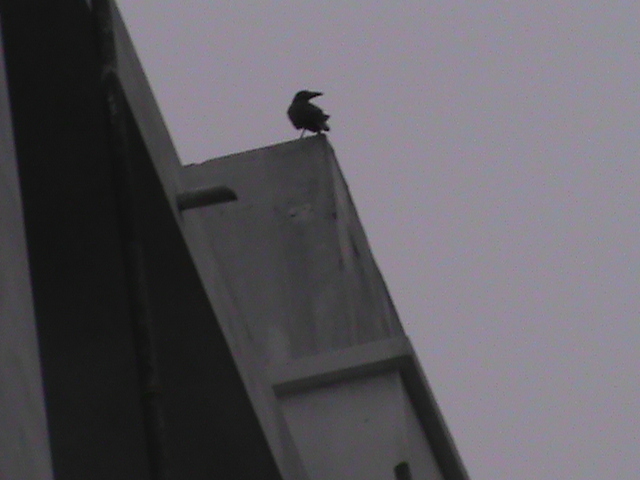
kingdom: Animalia
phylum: Chordata
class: Aves
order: Passeriformes
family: Corvidae
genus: Corvus
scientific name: Corvus macrorhynchos
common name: Large-billed crow
